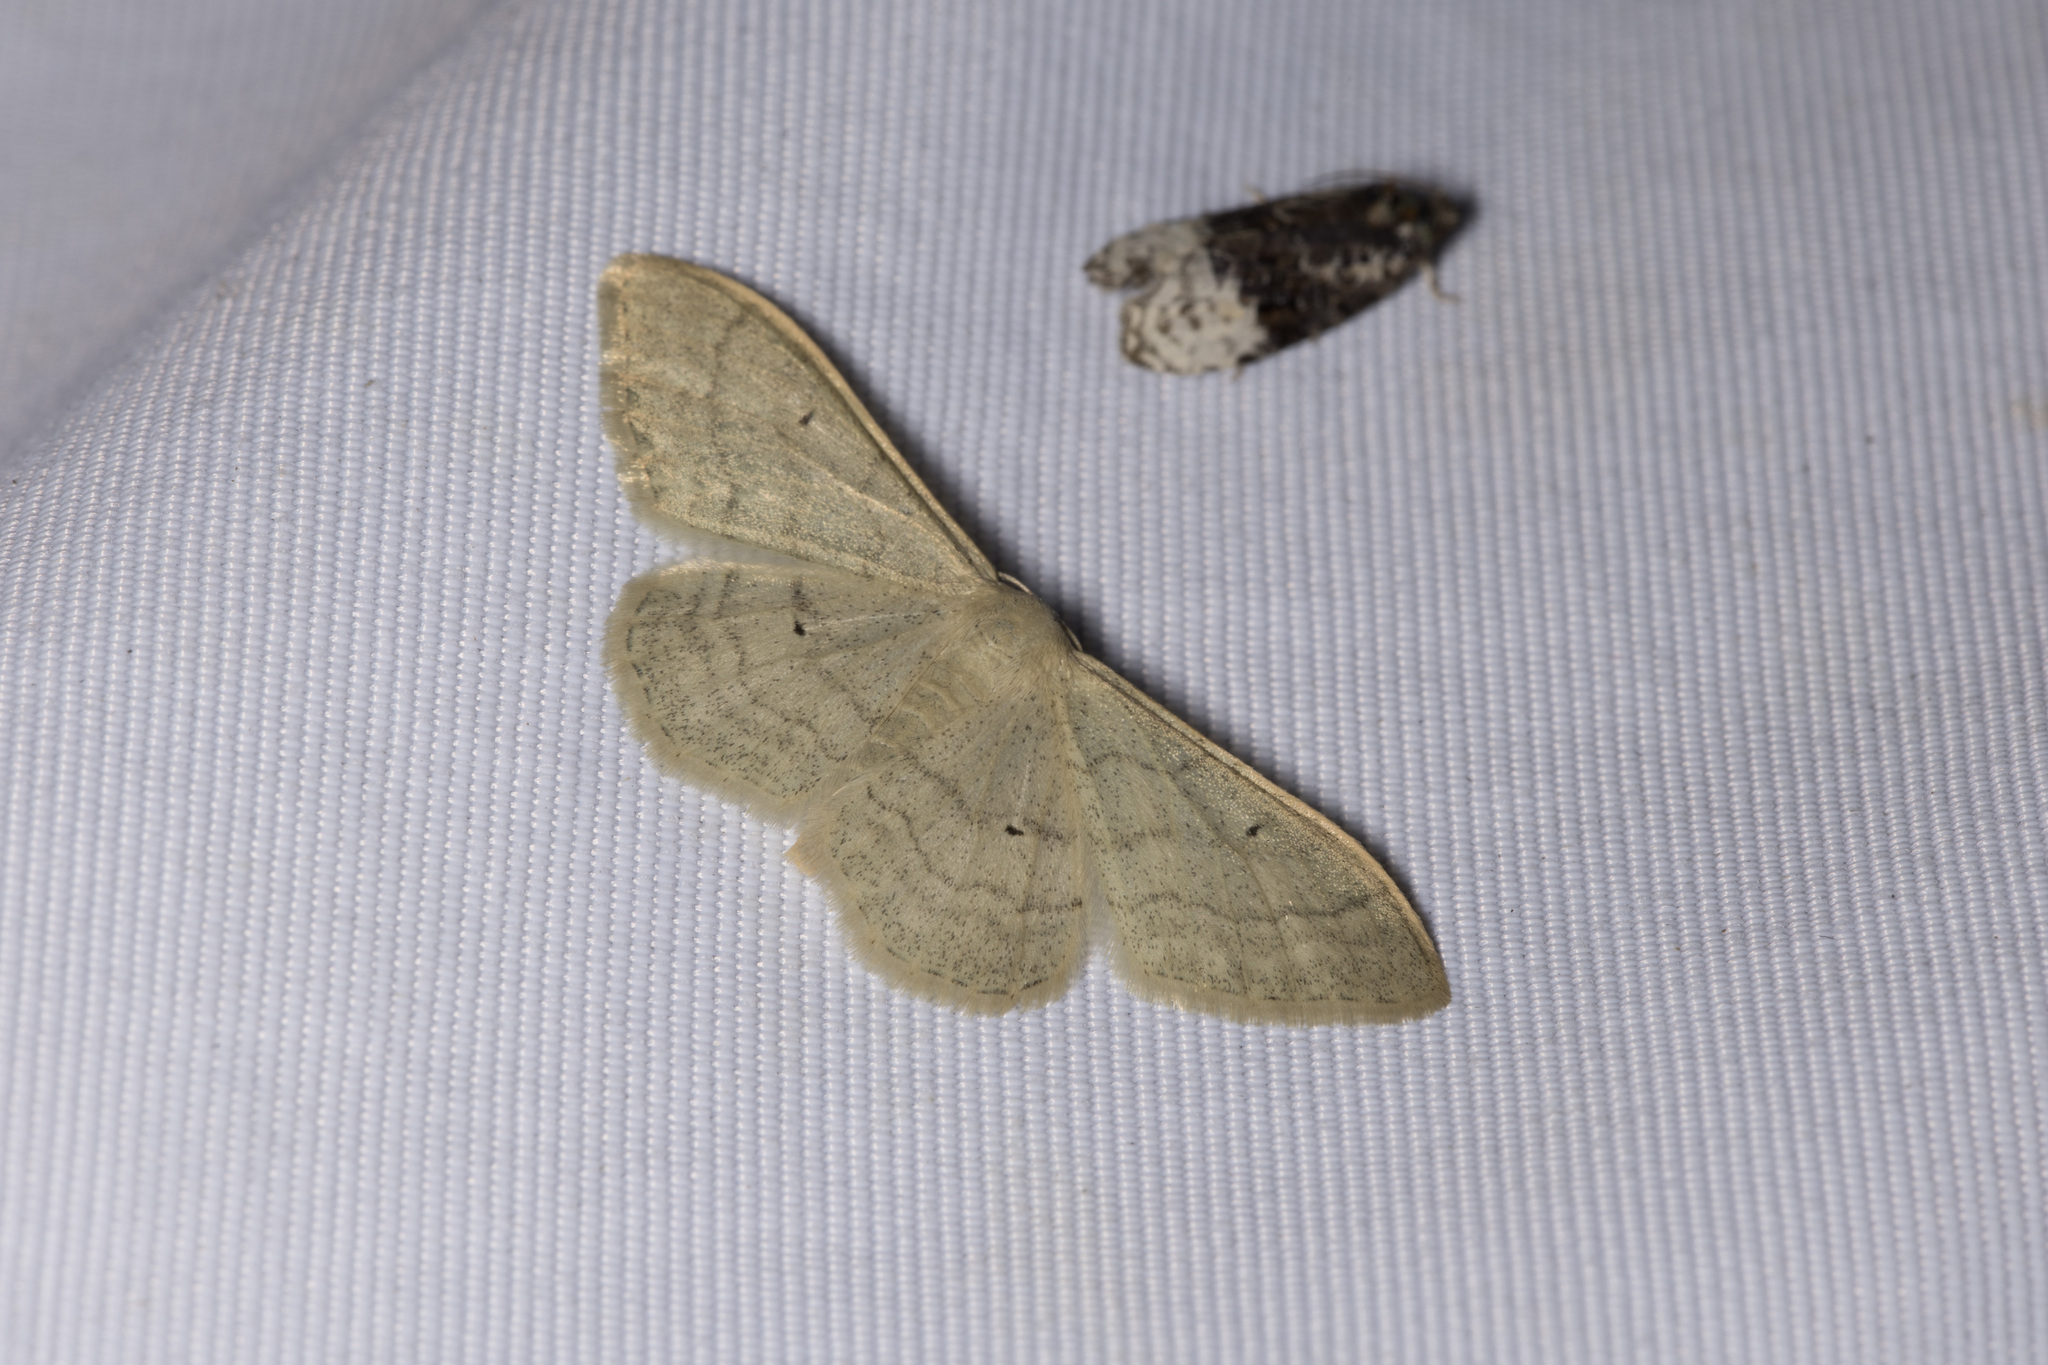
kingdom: Animalia
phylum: Arthropoda
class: Insecta
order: Lepidoptera
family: Geometridae
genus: Idaea
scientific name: Idaea straminata
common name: Plain wave
